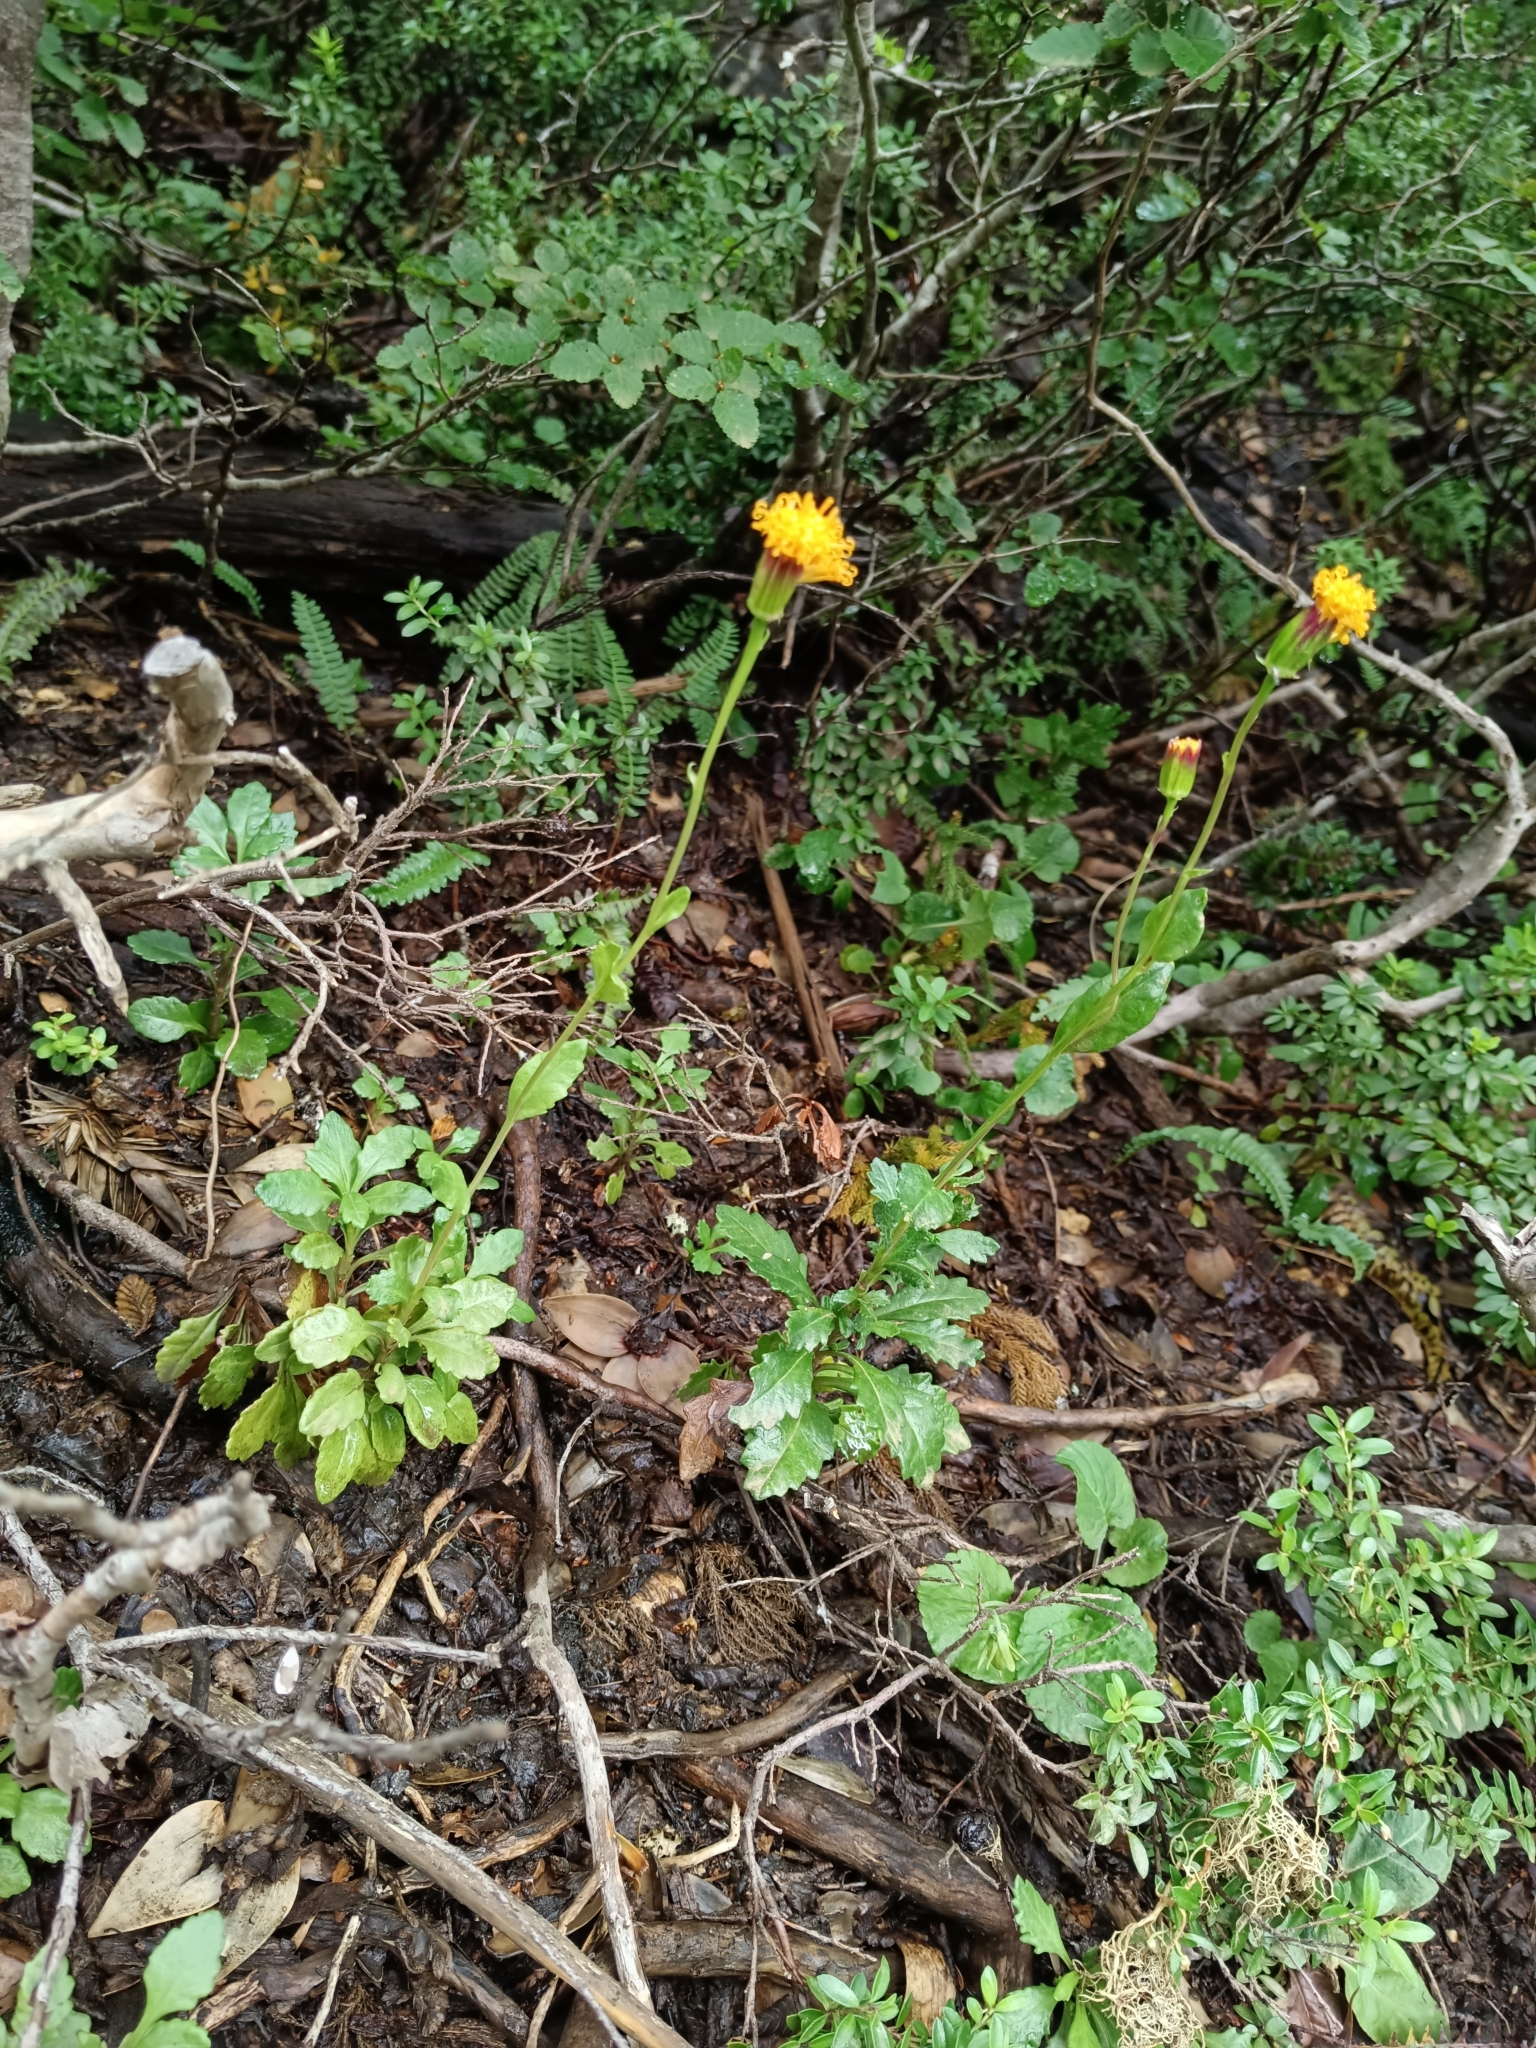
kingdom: Plantae
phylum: Tracheophyta
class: Magnoliopsida
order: Asterales
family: Asteraceae
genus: Senecio
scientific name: Senecio pilquensis
